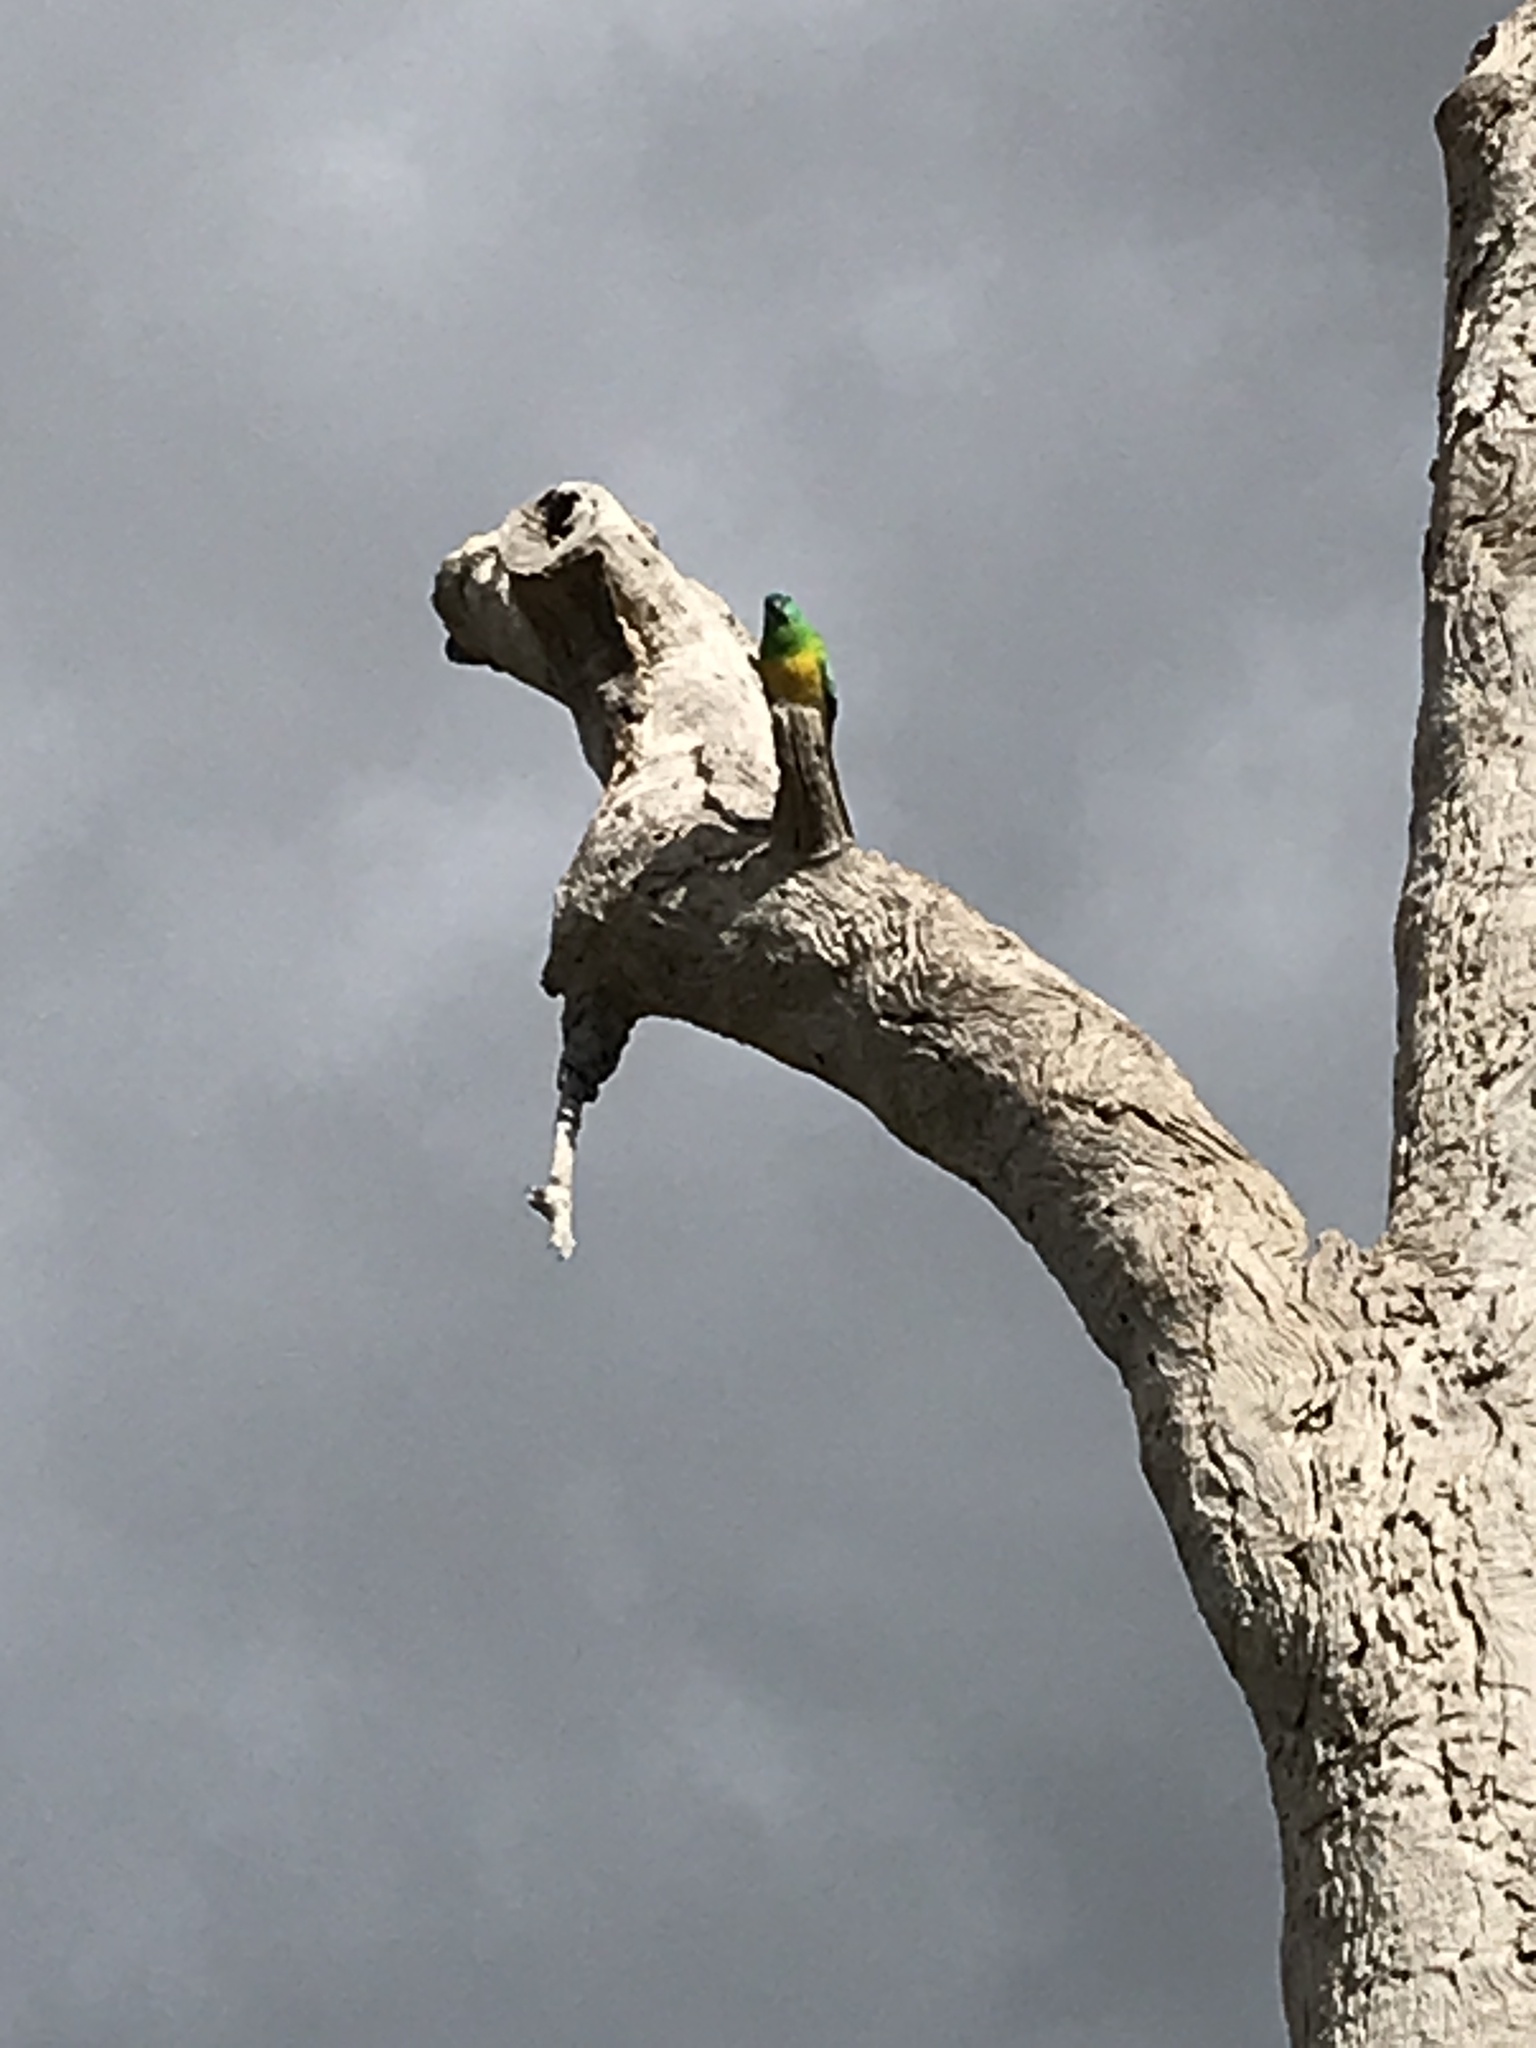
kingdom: Animalia
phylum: Chordata
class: Aves
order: Psittaciformes
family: Psittacidae
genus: Psephotus
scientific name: Psephotus haematonotus
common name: Red-rumped parrot
